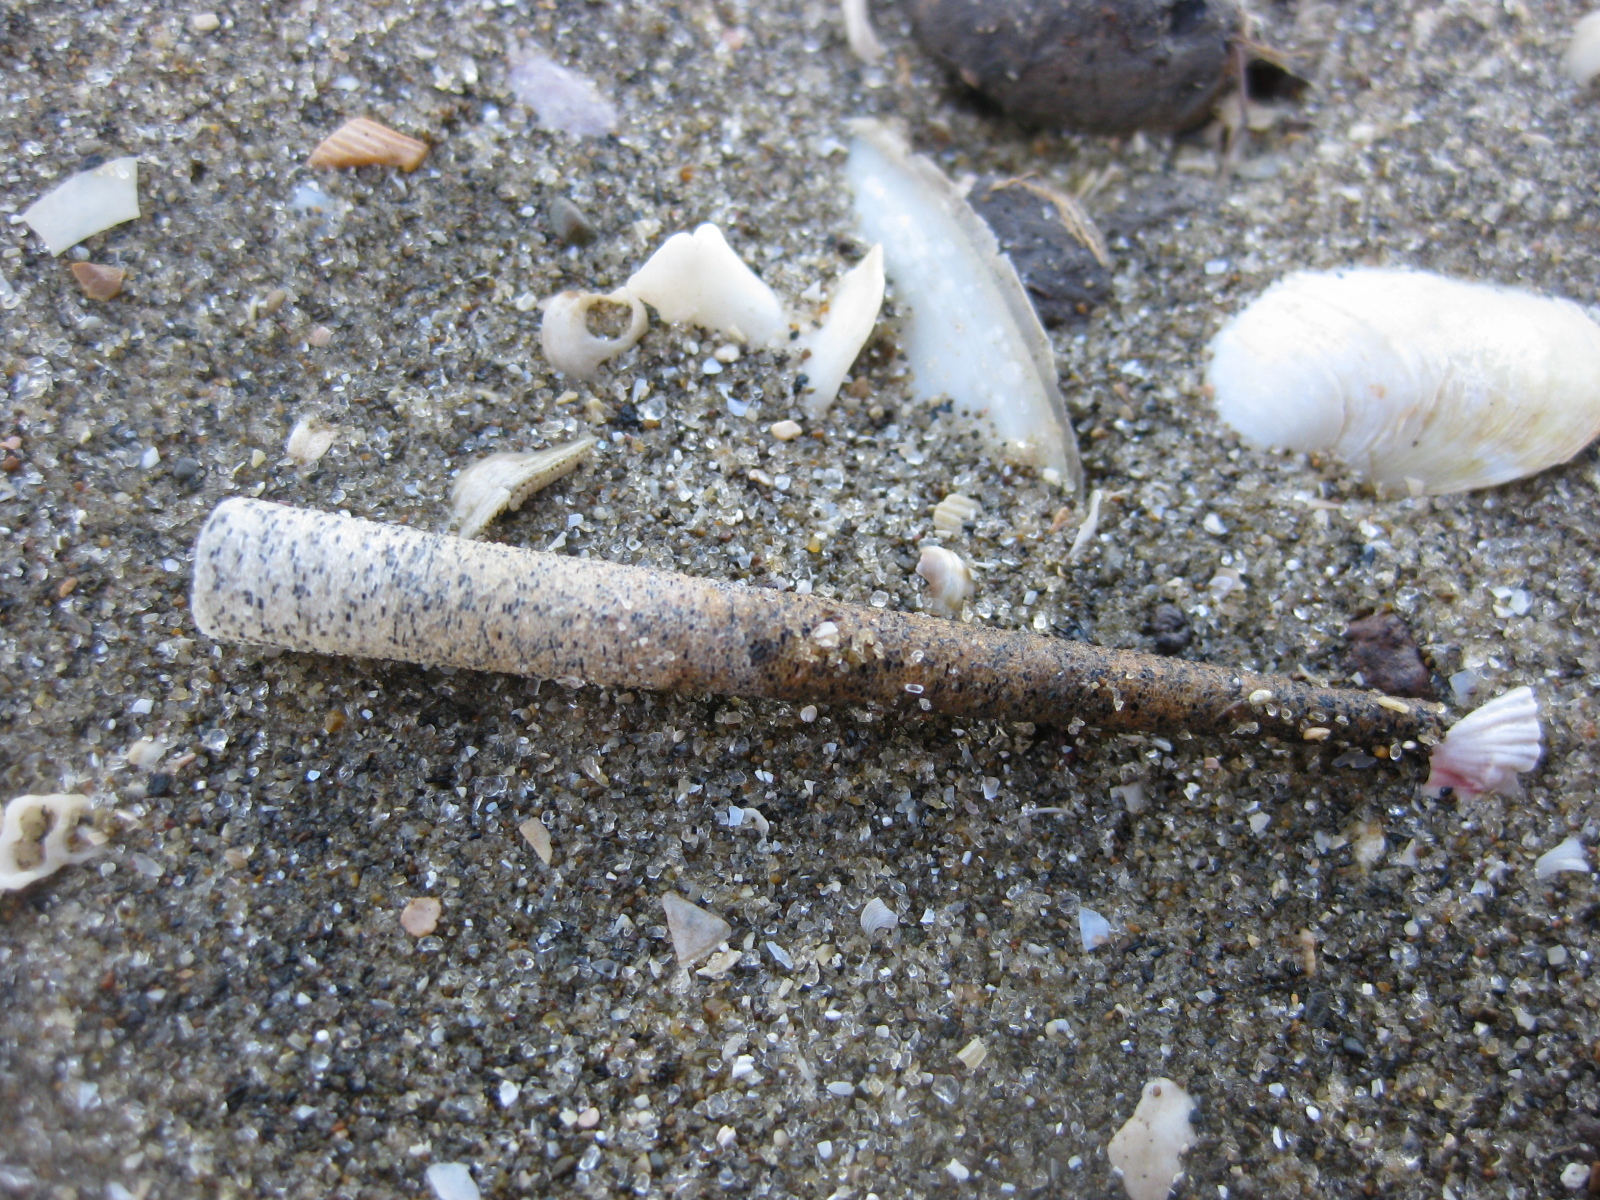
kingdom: Animalia
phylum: Annelida
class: Polychaeta
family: Pectinariidae
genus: Lagis
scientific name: Lagis australis
